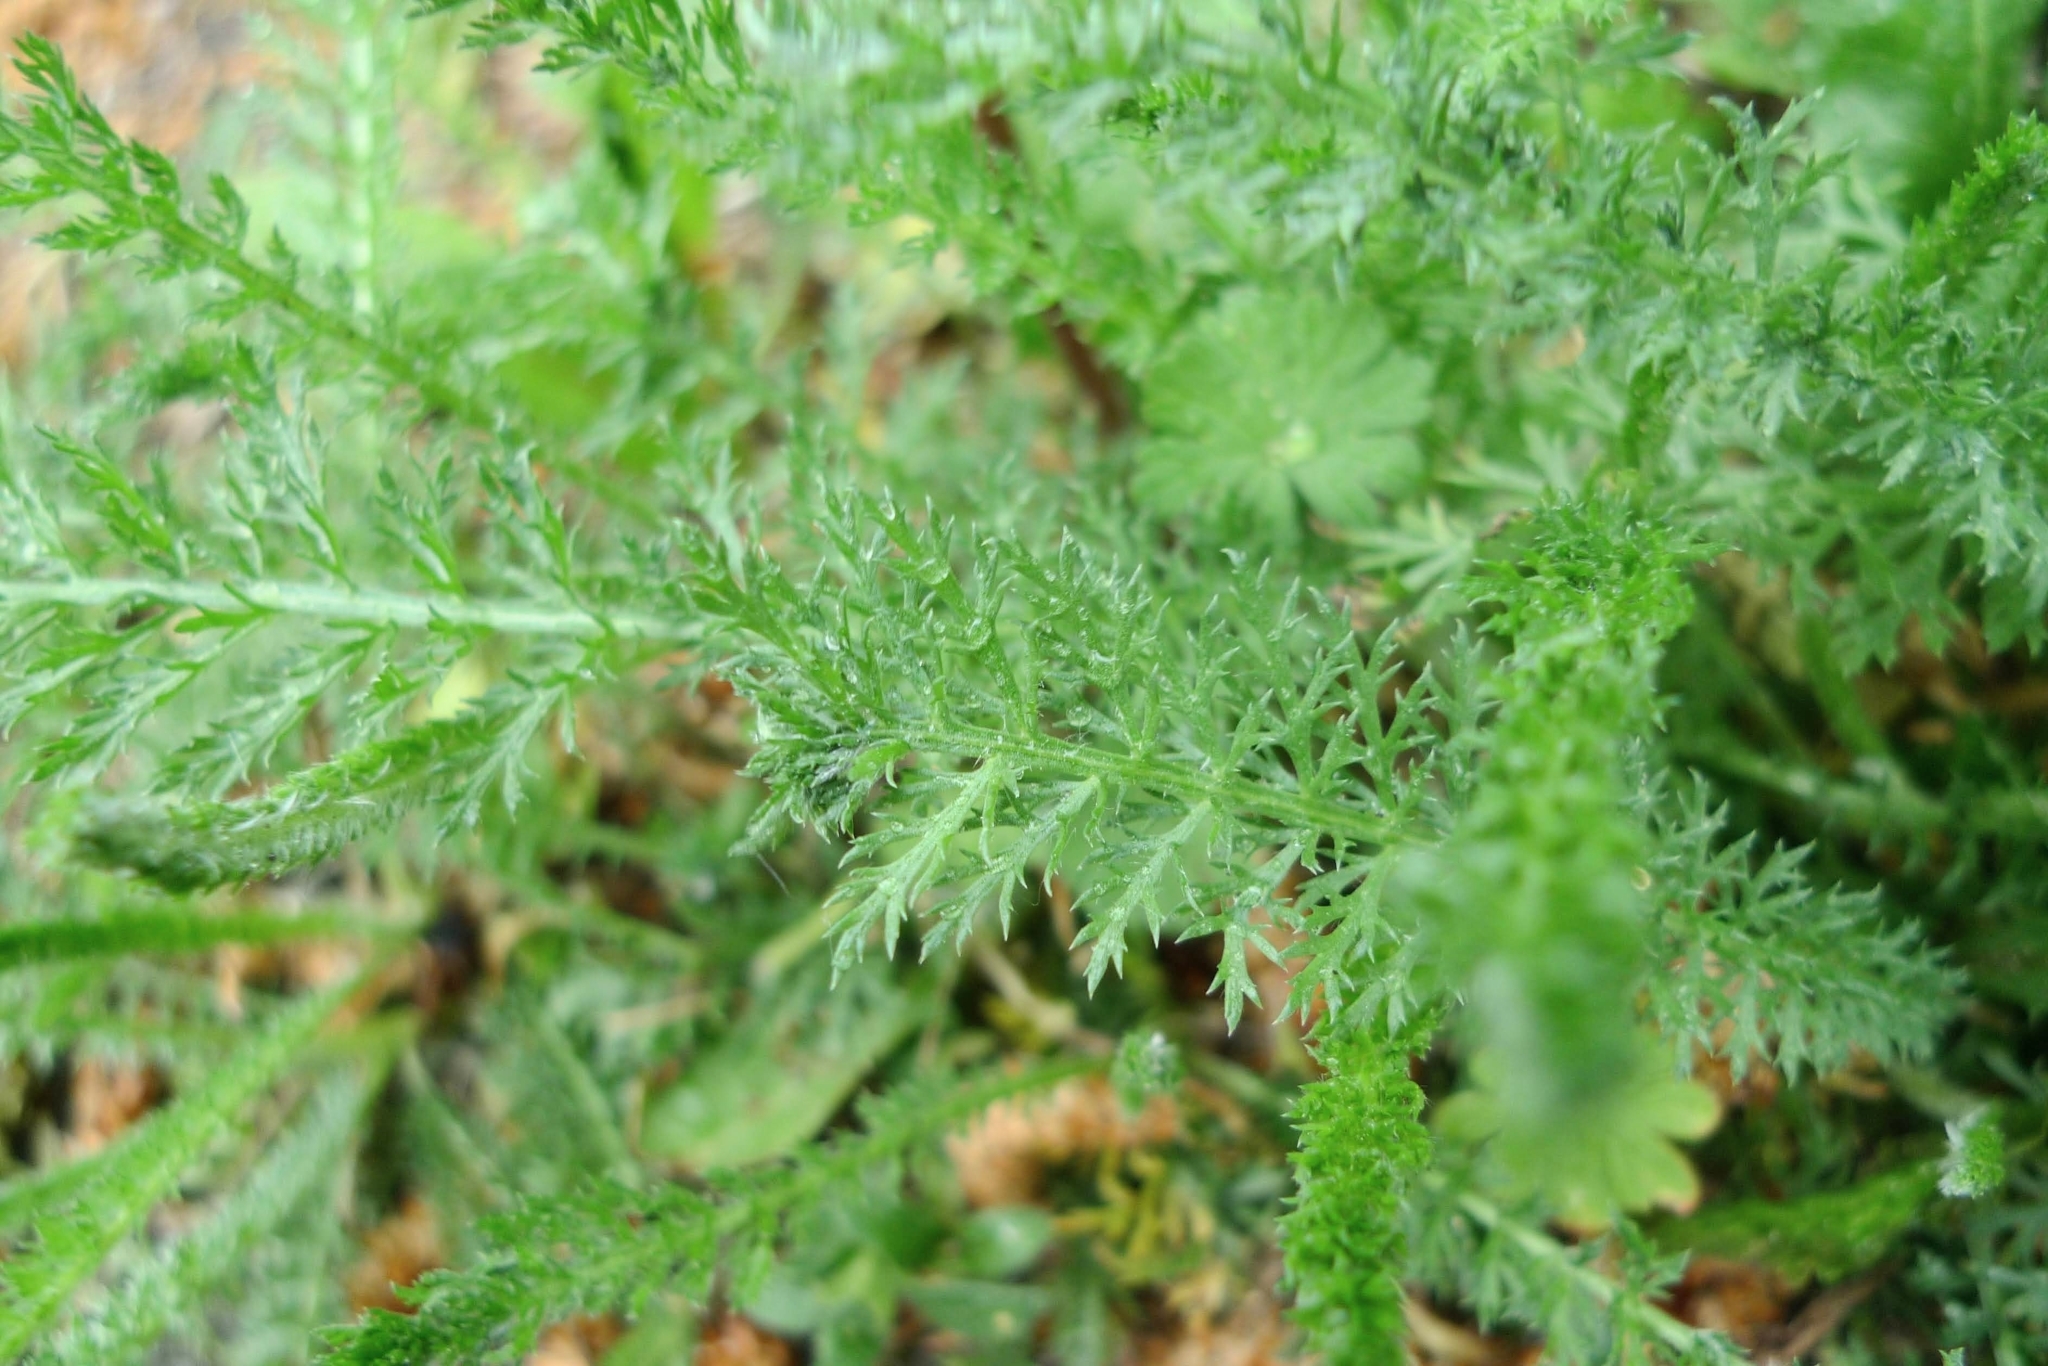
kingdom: Plantae
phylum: Tracheophyta
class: Magnoliopsida
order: Asterales
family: Asteraceae
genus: Achillea
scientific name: Achillea millefolium
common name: Yarrow
